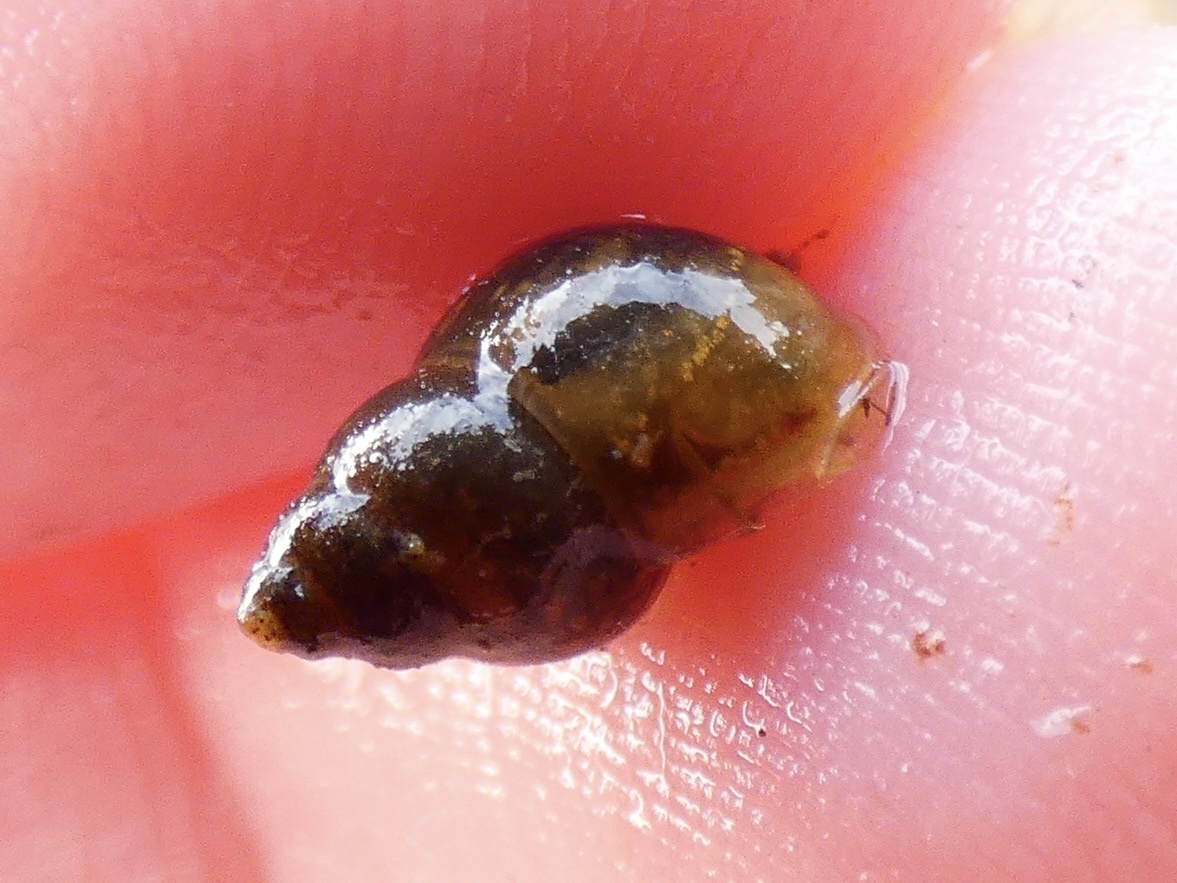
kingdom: Animalia
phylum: Mollusca
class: Gastropoda
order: Littorinimorpha
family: Bithyniidae
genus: Bithynia
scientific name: Bithynia tentaculata
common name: Common bithynia
